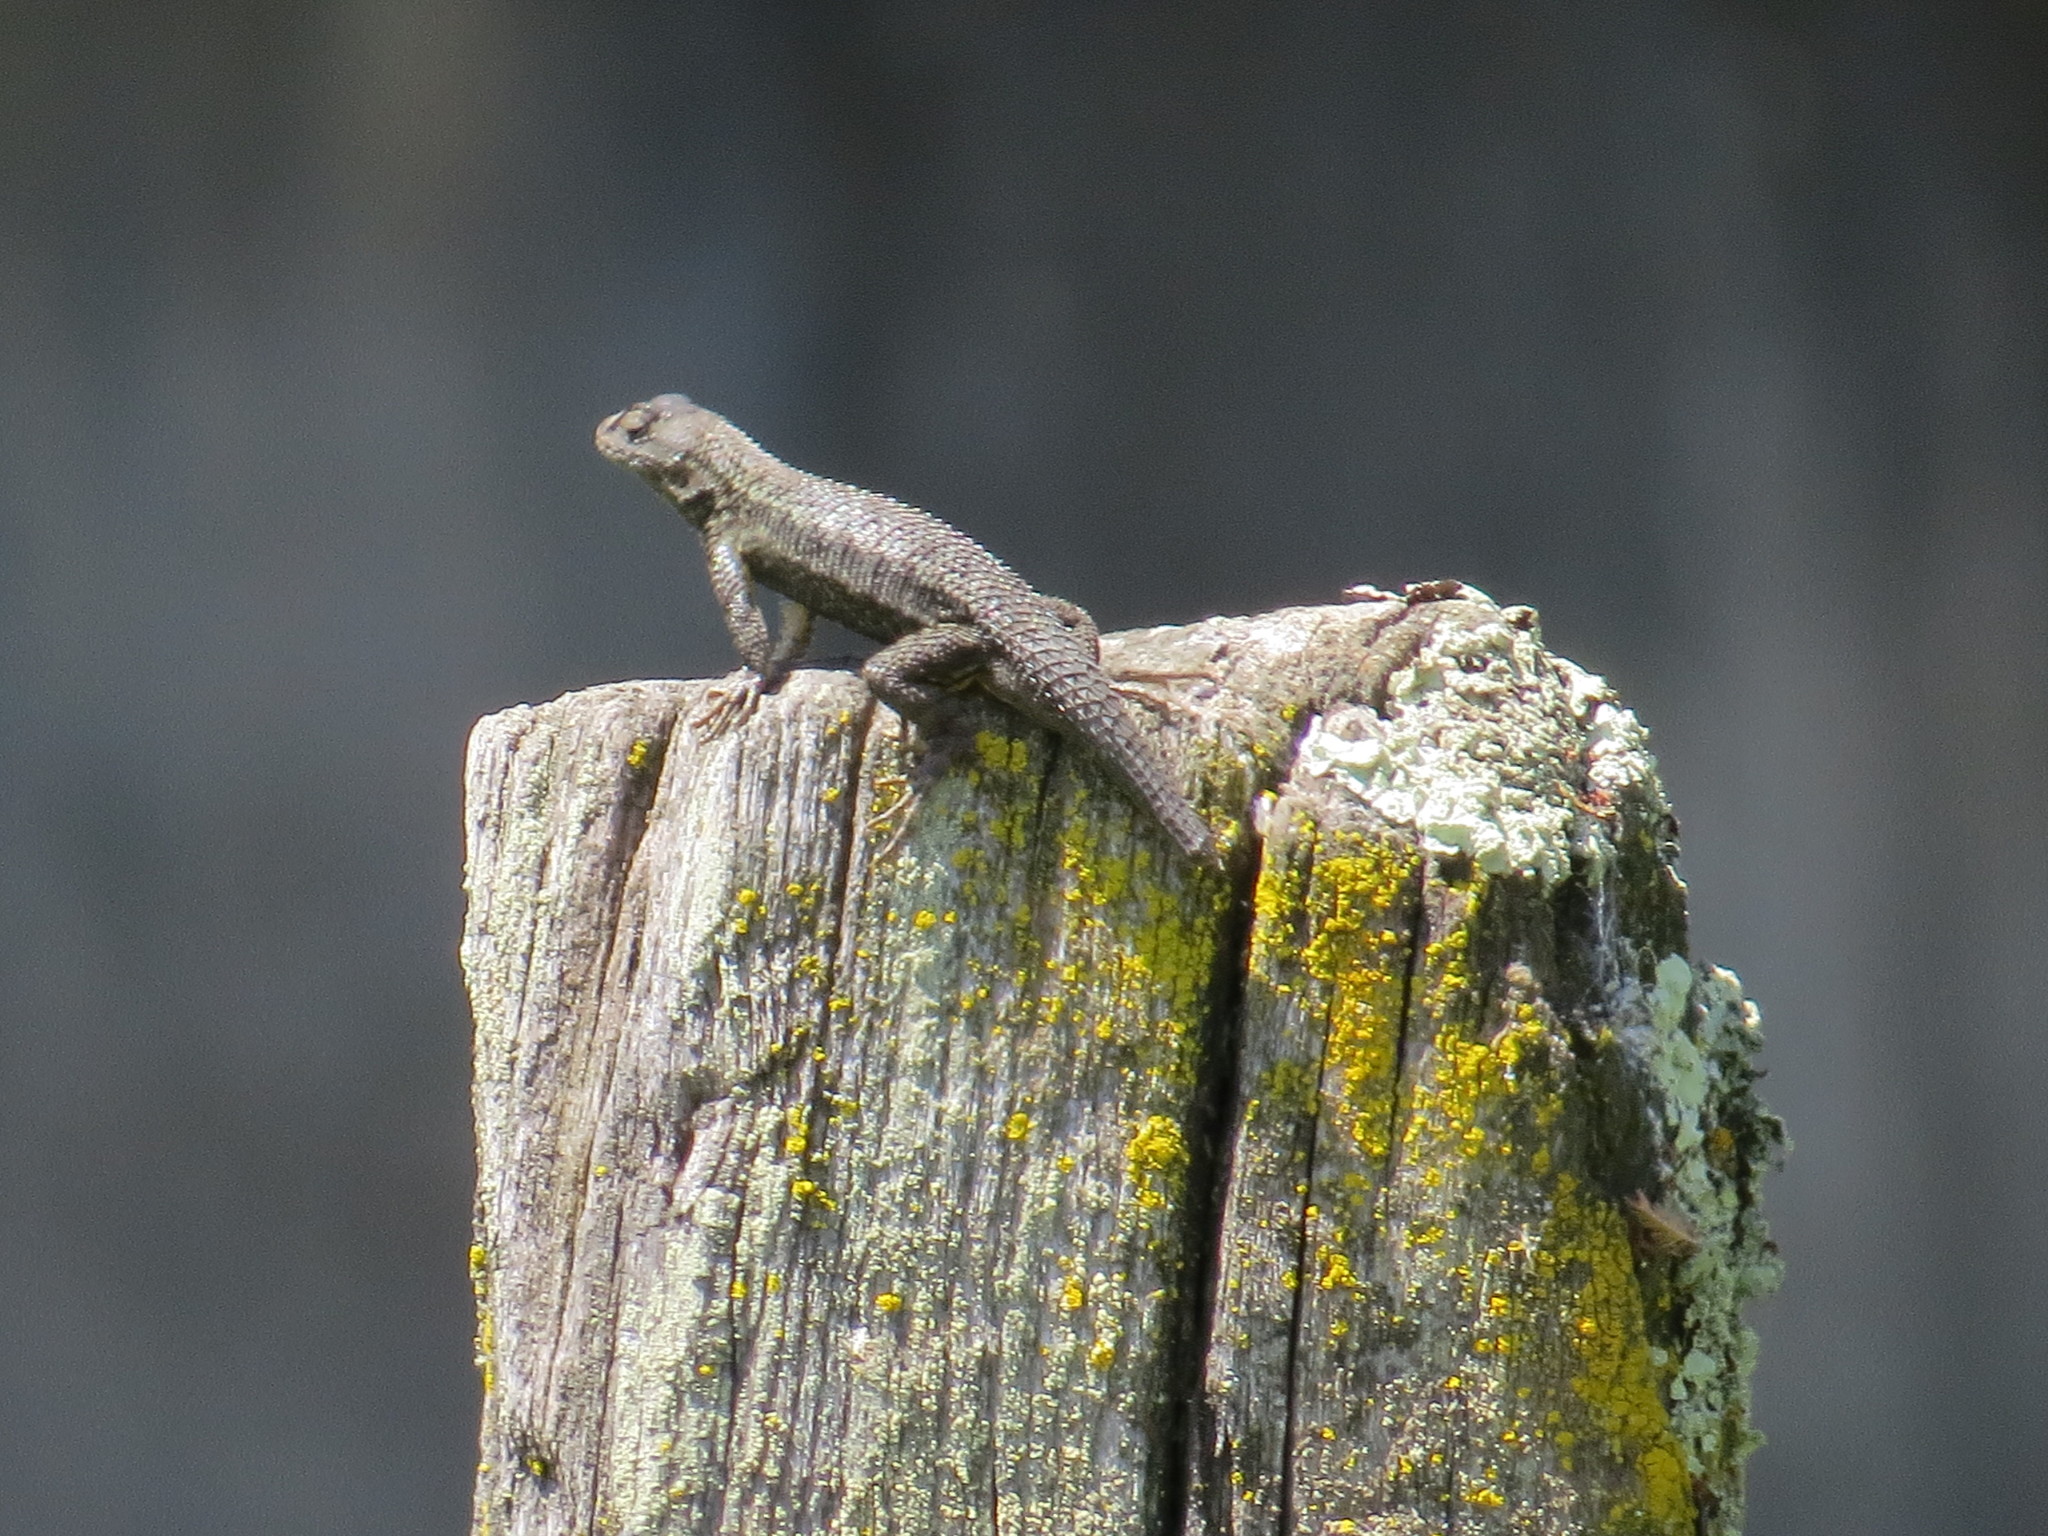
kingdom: Animalia
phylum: Chordata
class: Squamata
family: Phrynosomatidae
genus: Sceloporus
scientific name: Sceloporus occidentalis
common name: Western fence lizard
